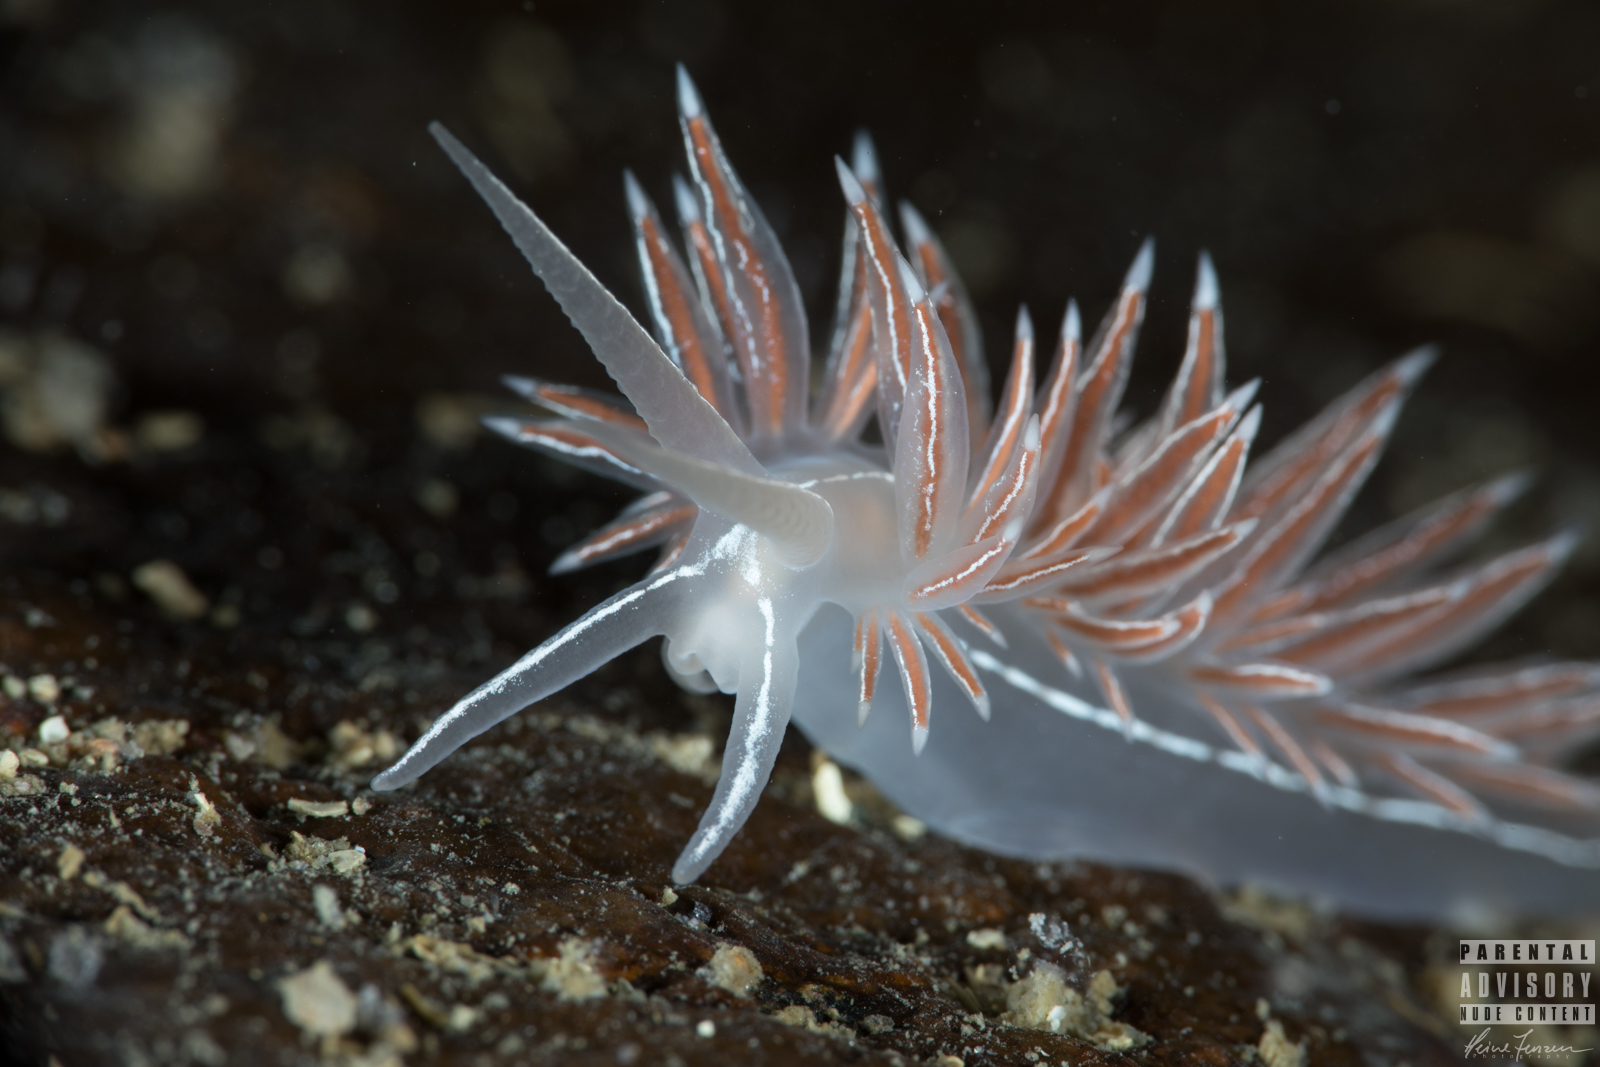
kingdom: Animalia
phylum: Mollusca
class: Gastropoda
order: Nudibranchia
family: Coryphellidae
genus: Coryphella
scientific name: Coryphella chriskaugei
